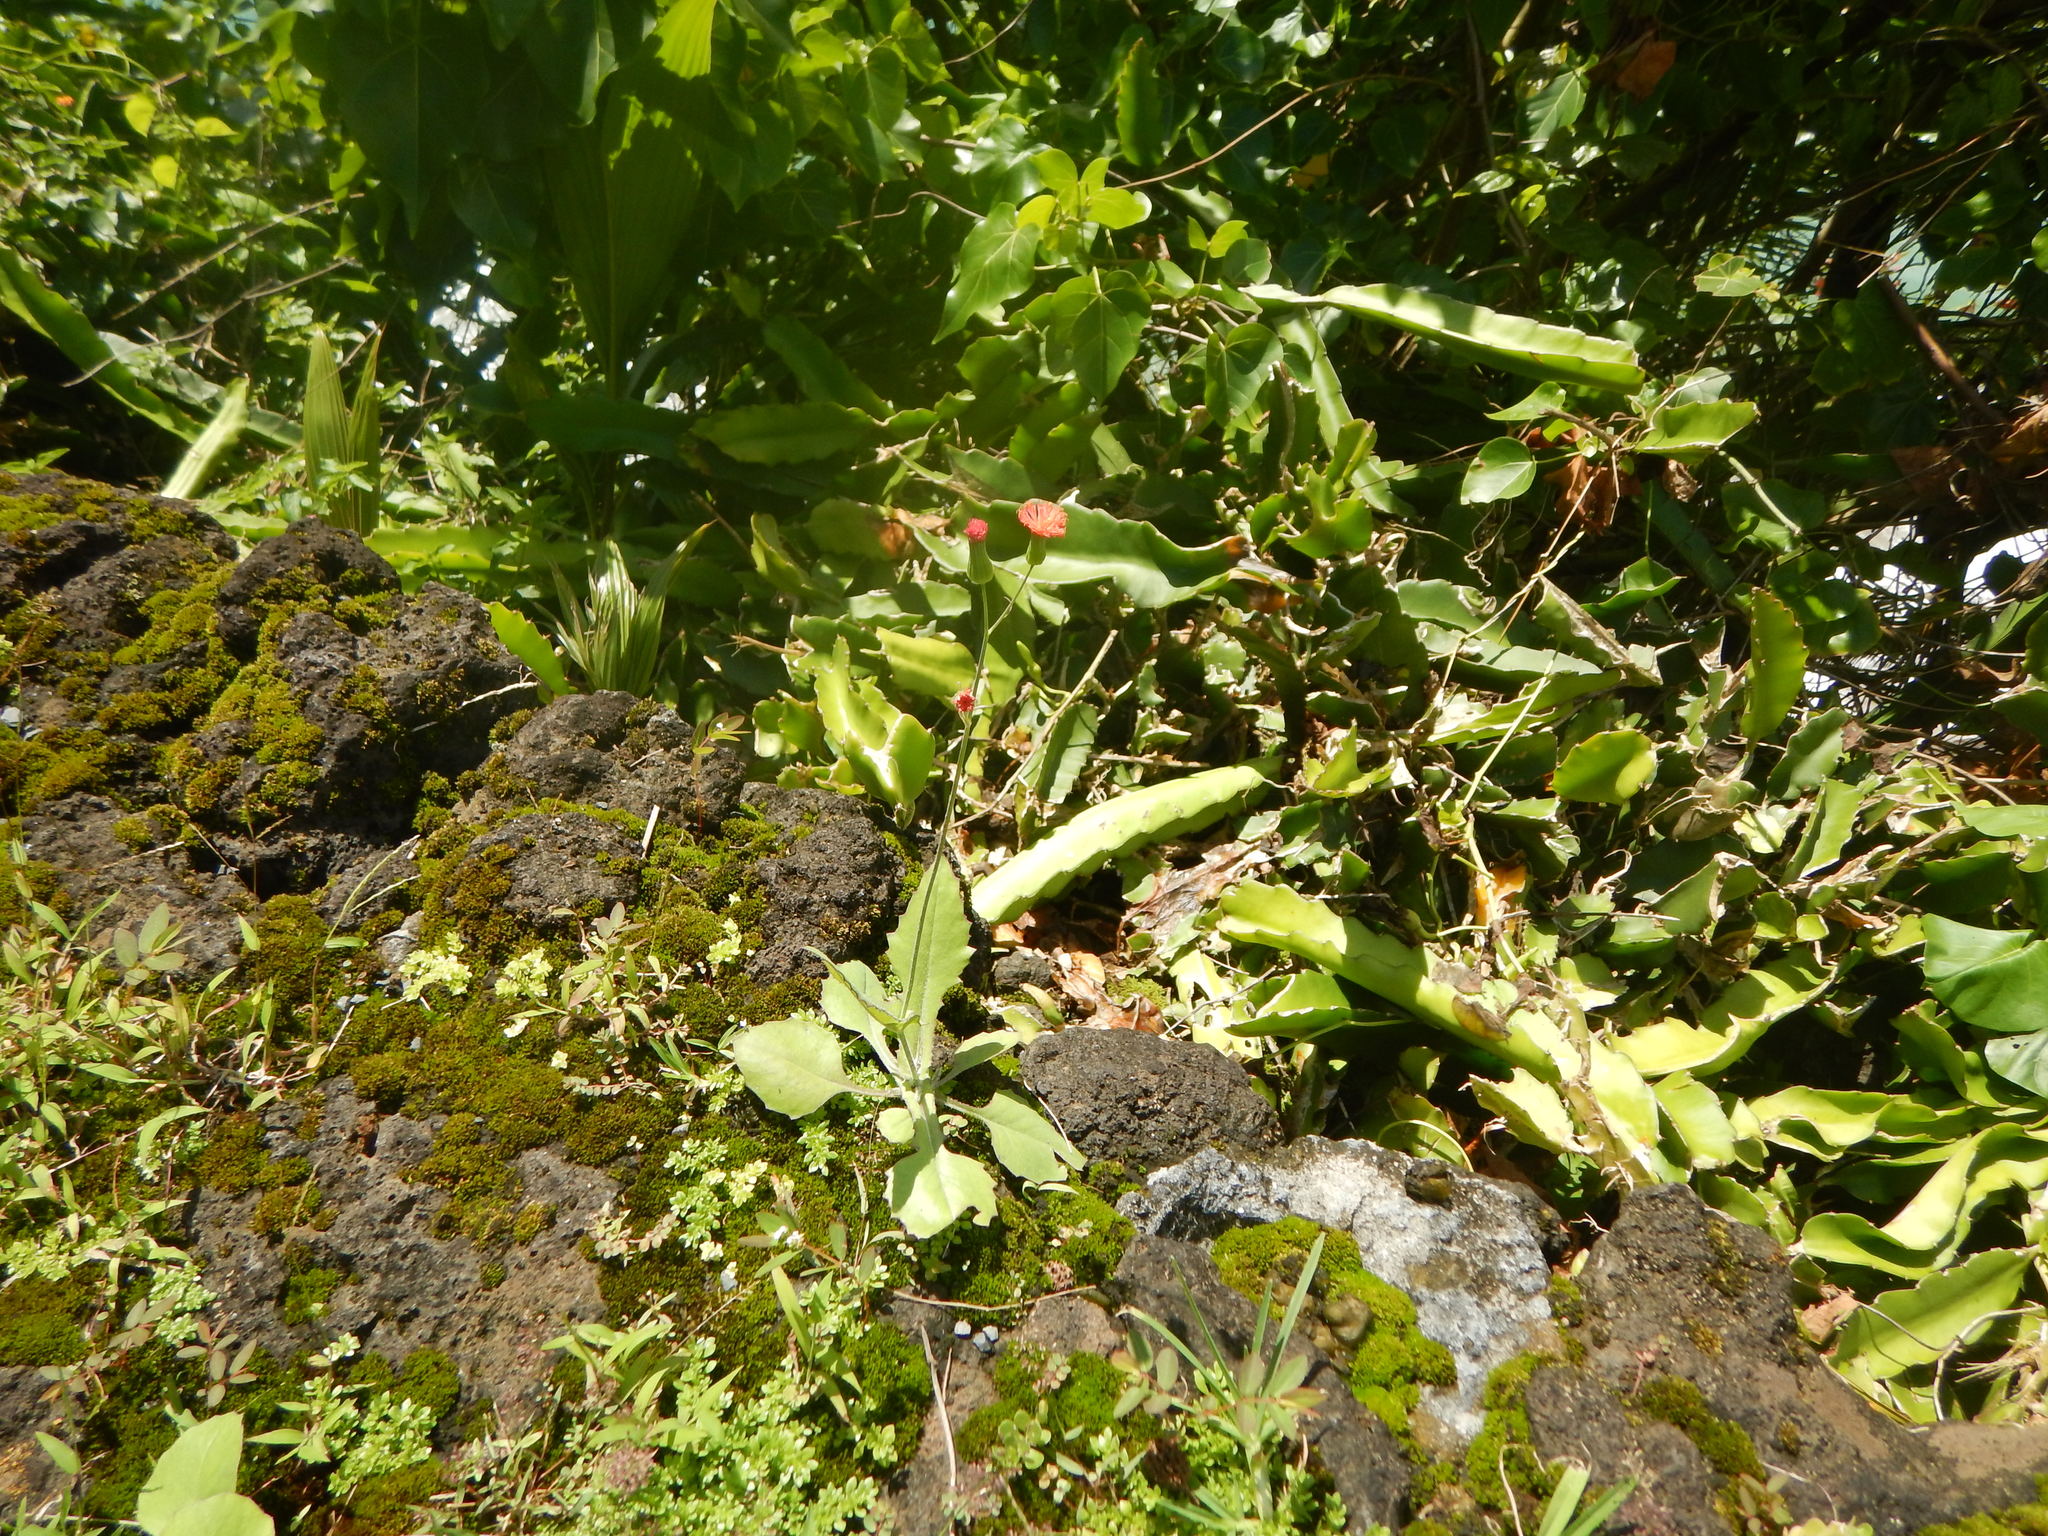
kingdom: Plantae
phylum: Tracheophyta
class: Magnoliopsida
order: Asterales
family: Asteraceae
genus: Emilia
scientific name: Emilia fosbergii
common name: Florida tasselflower
